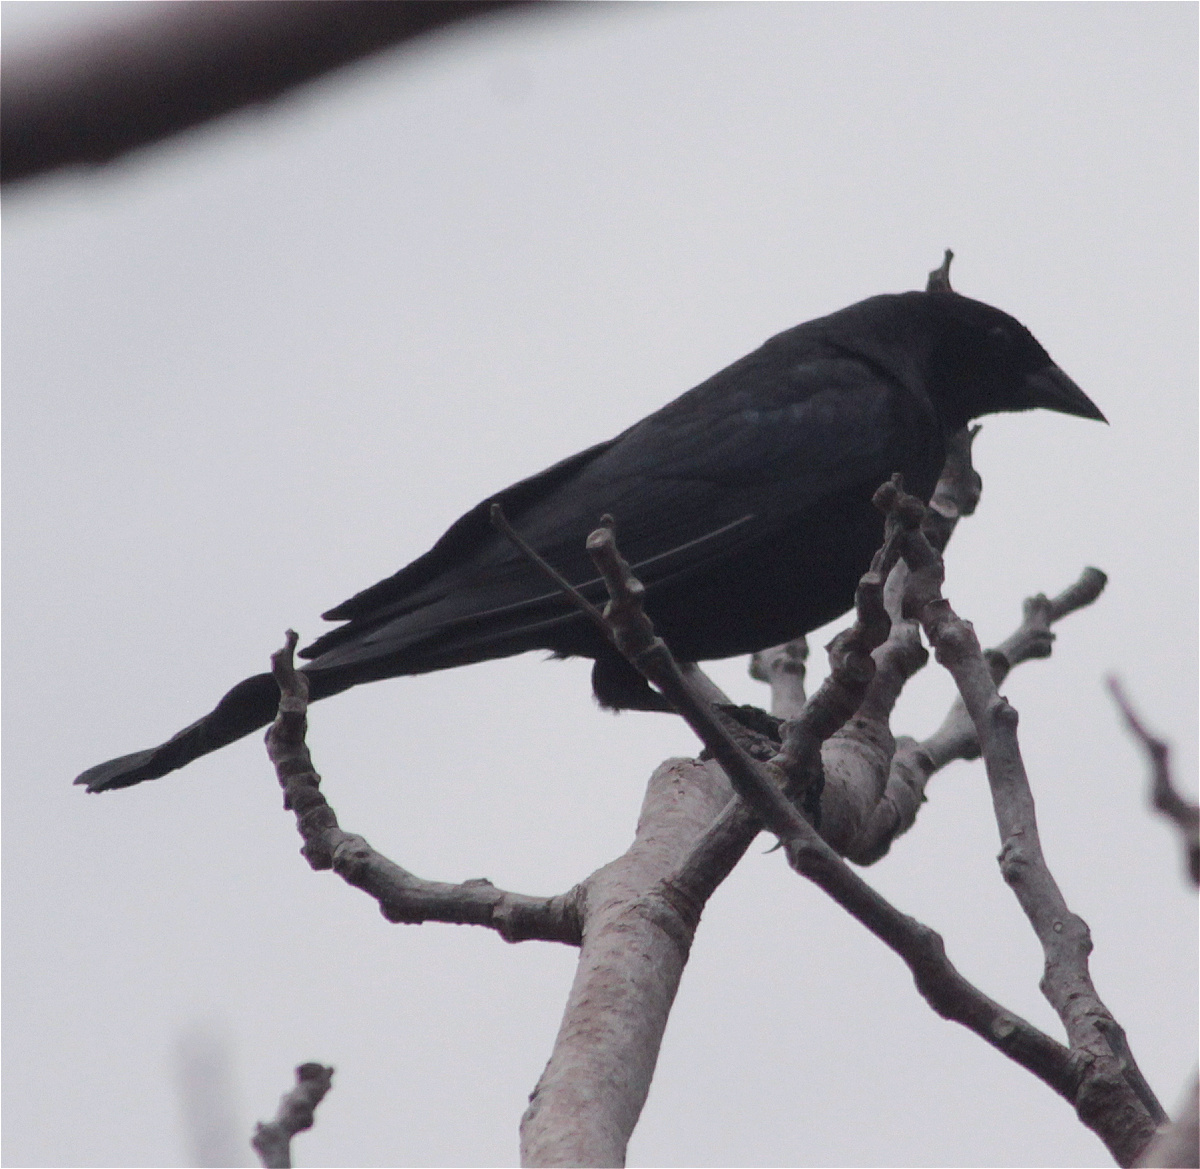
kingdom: Animalia
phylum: Chordata
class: Aves
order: Passeriformes
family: Icteridae
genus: Molothrus
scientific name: Molothrus bonariensis
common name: Shiny cowbird
